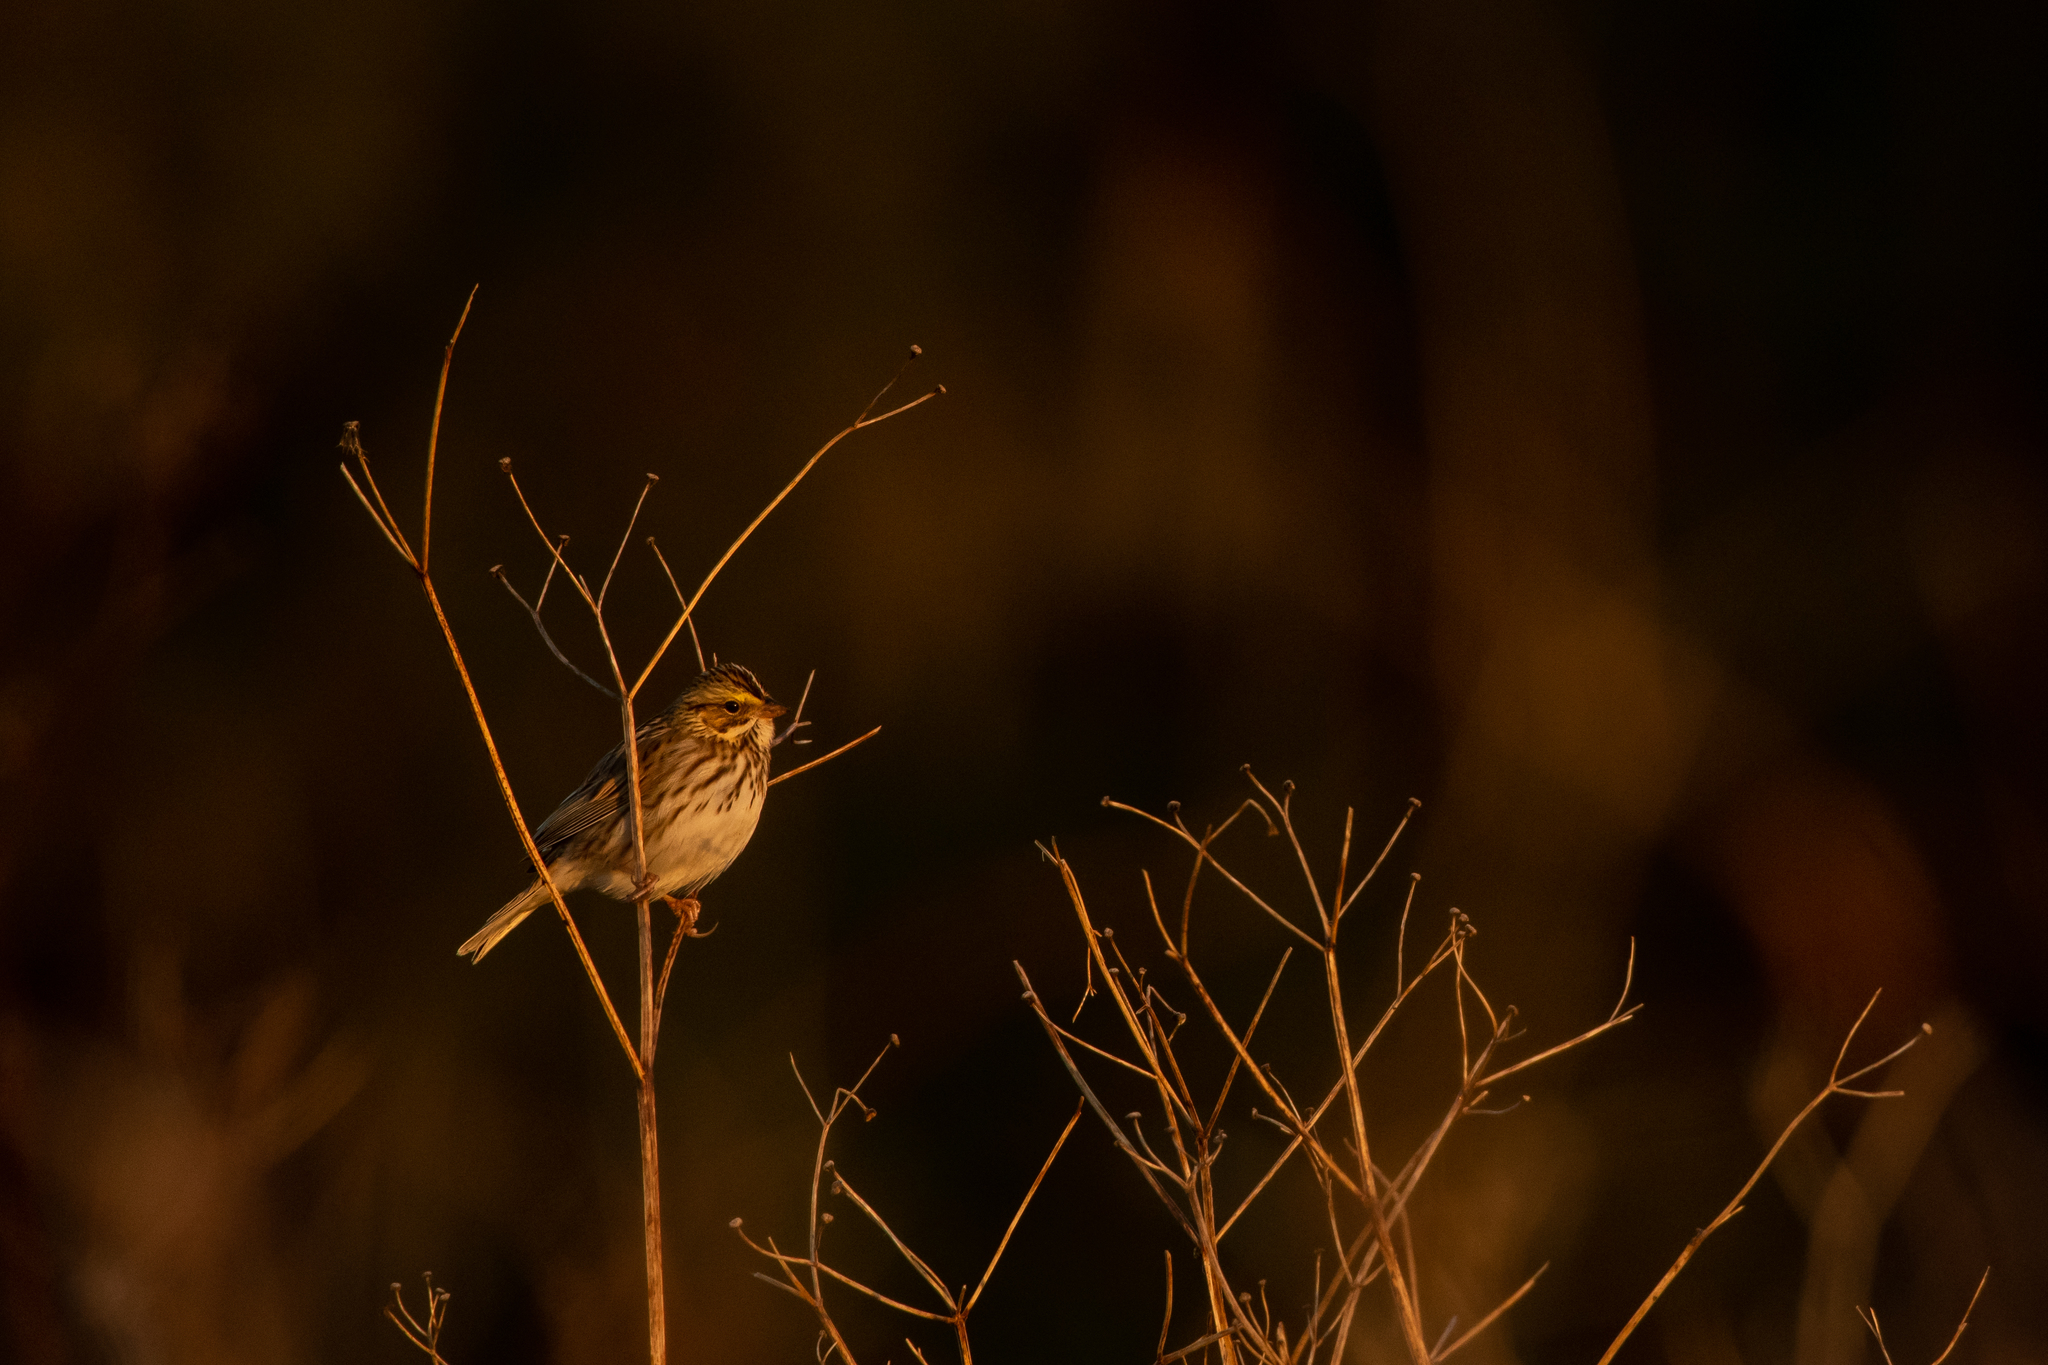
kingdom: Animalia
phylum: Chordata
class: Aves
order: Passeriformes
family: Passerellidae
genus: Passerculus
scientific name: Passerculus sandwichensis
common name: Savannah sparrow
